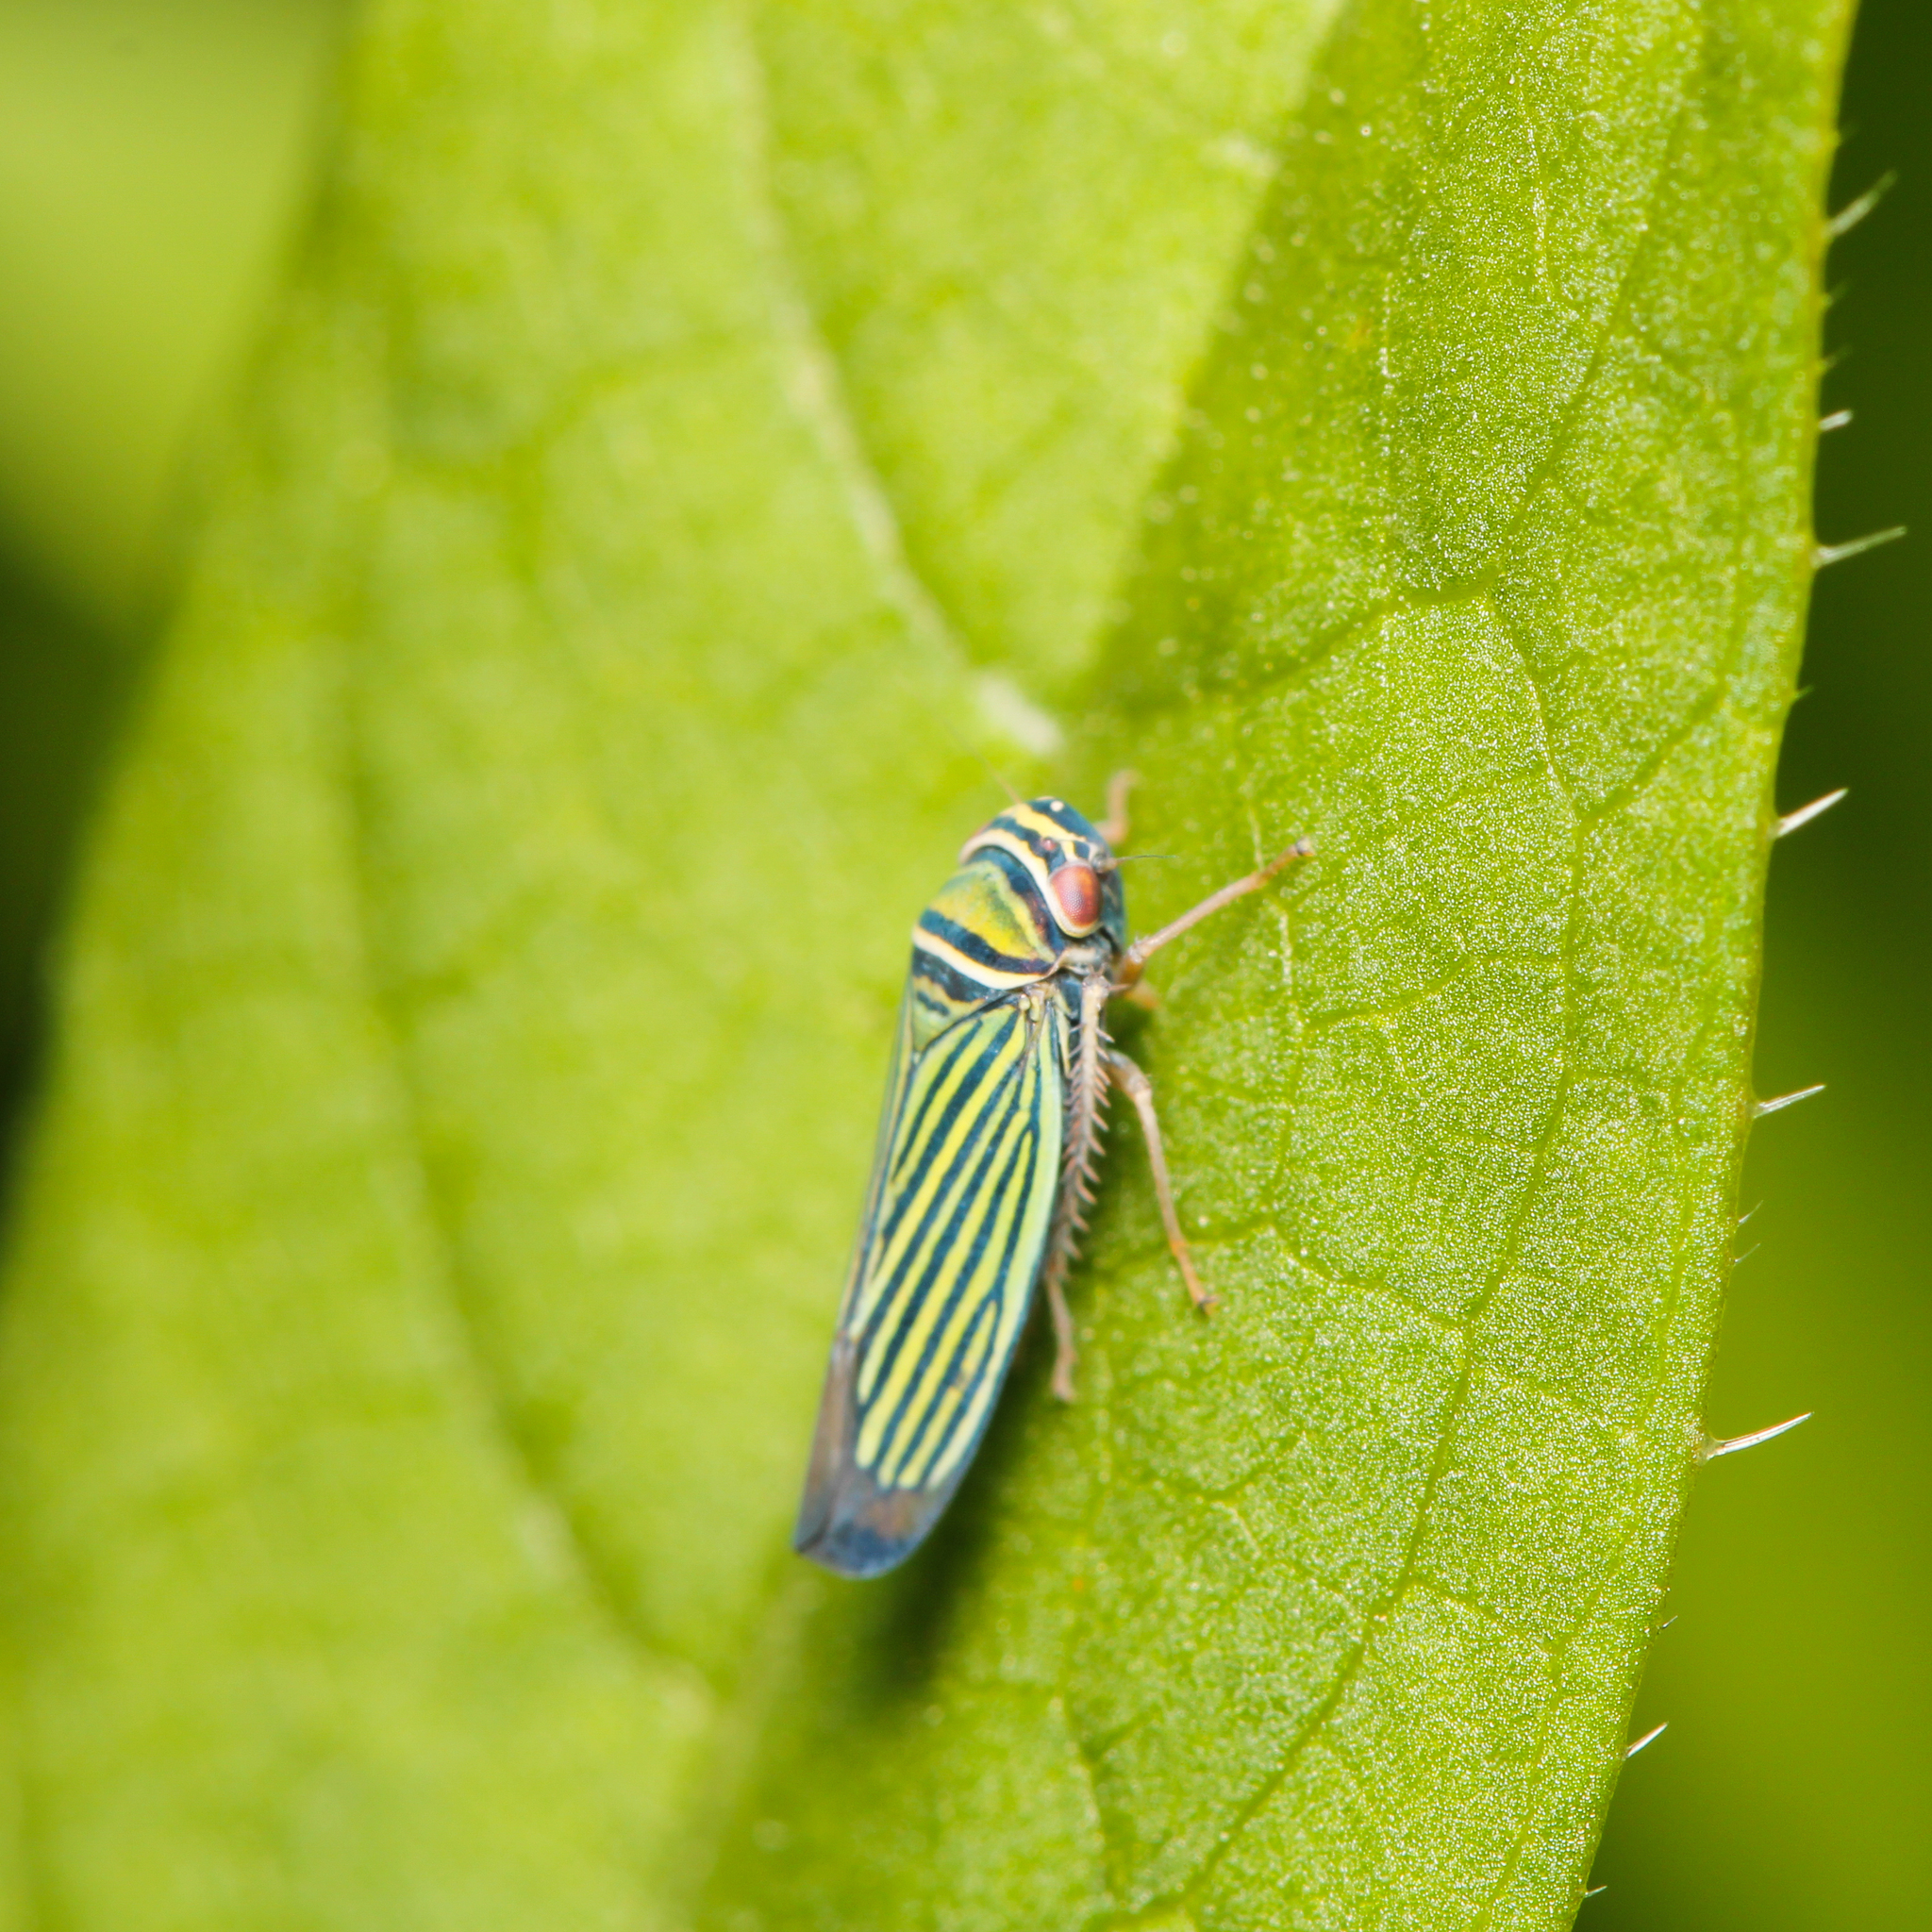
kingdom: Animalia
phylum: Arthropoda
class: Insecta
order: Hemiptera
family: Cicadellidae
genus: Tylozygus
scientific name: Tylozygus bifidus
